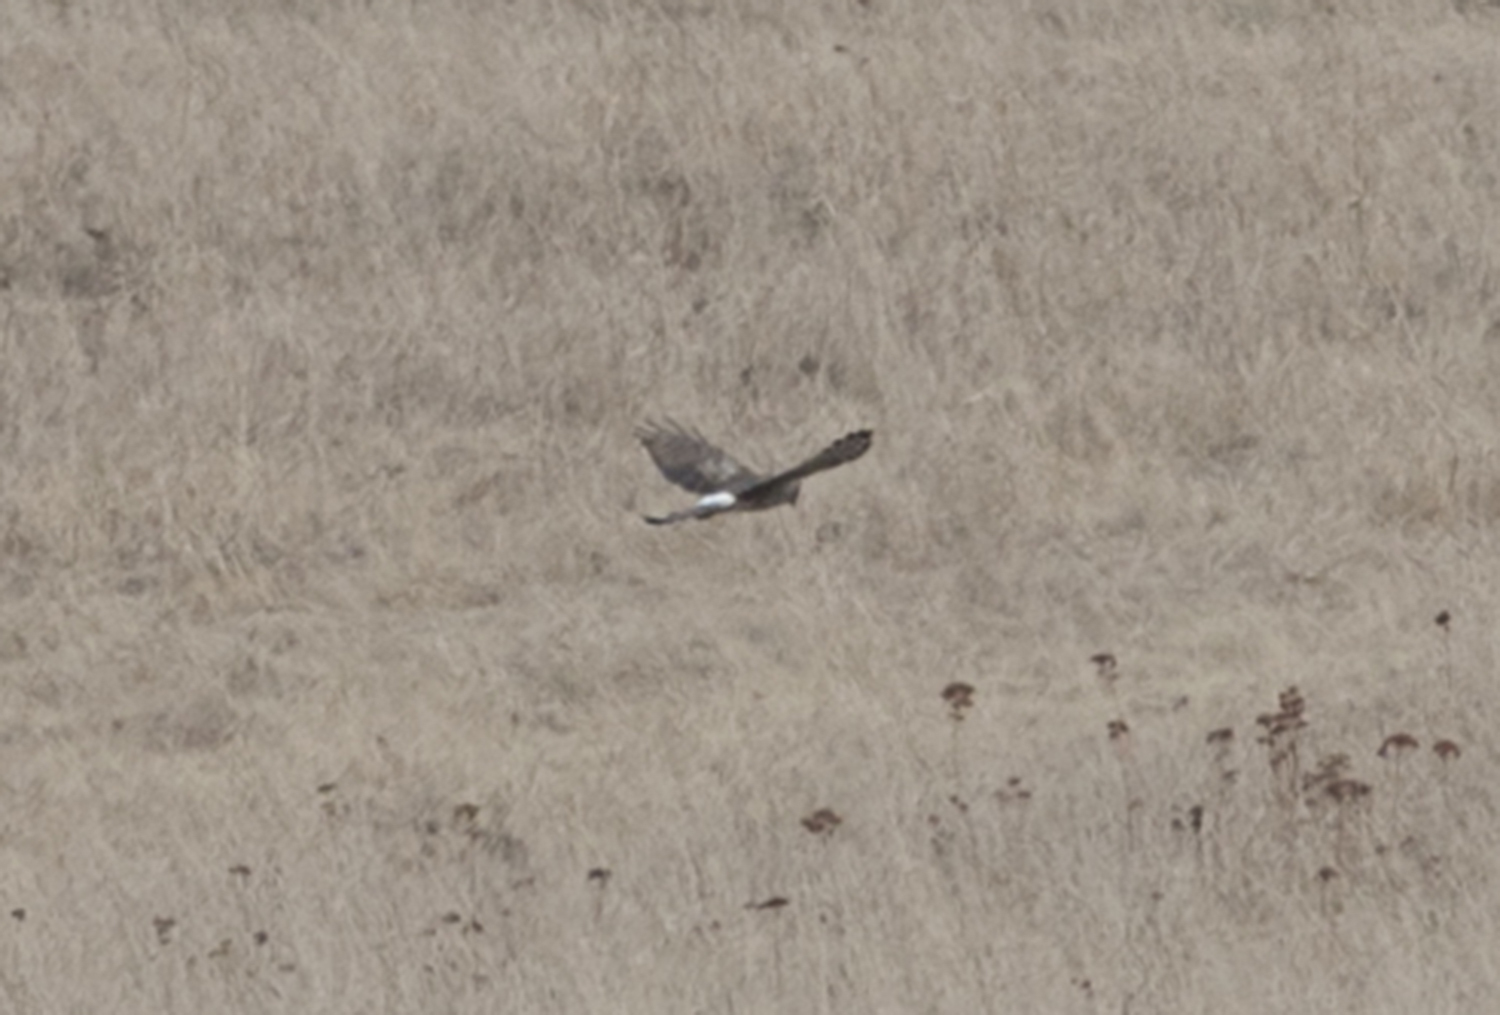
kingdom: Animalia
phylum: Chordata
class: Aves
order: Accipitriformes
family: Accipitridae
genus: Circus
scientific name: Circus cyaneus
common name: Hen harrier
